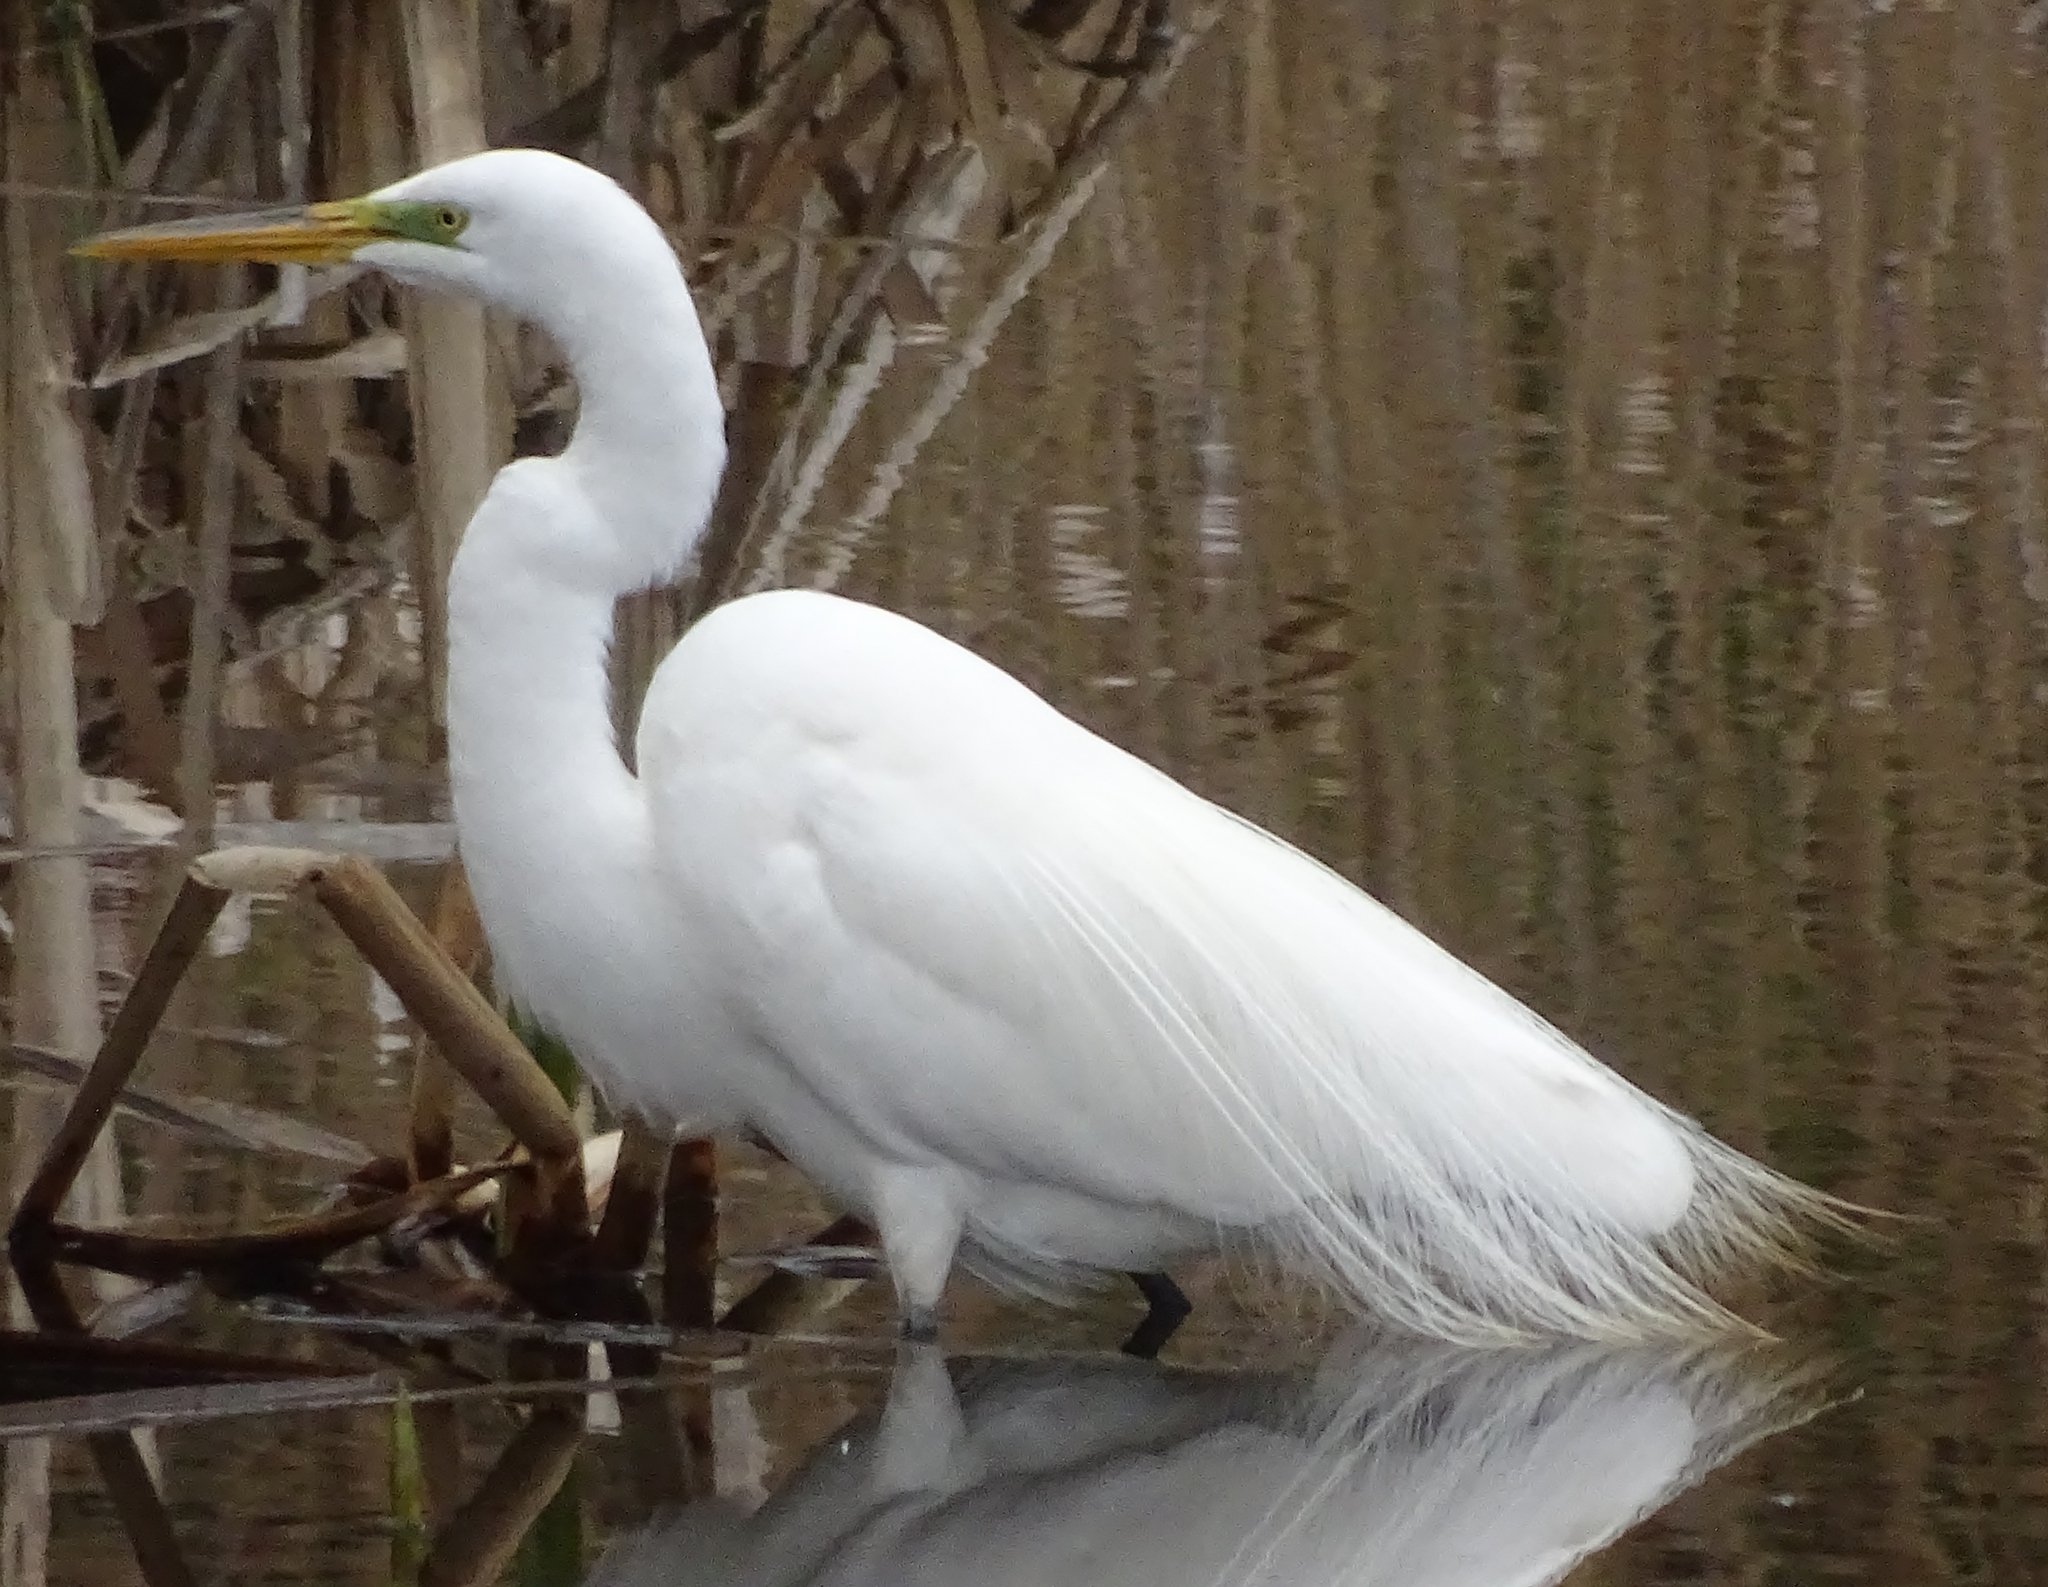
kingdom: Animalia
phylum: Chordata
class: Aves
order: Pelecaniformes
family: Ardeidae
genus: Ardea
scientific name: Ardea alba
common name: Great egret
